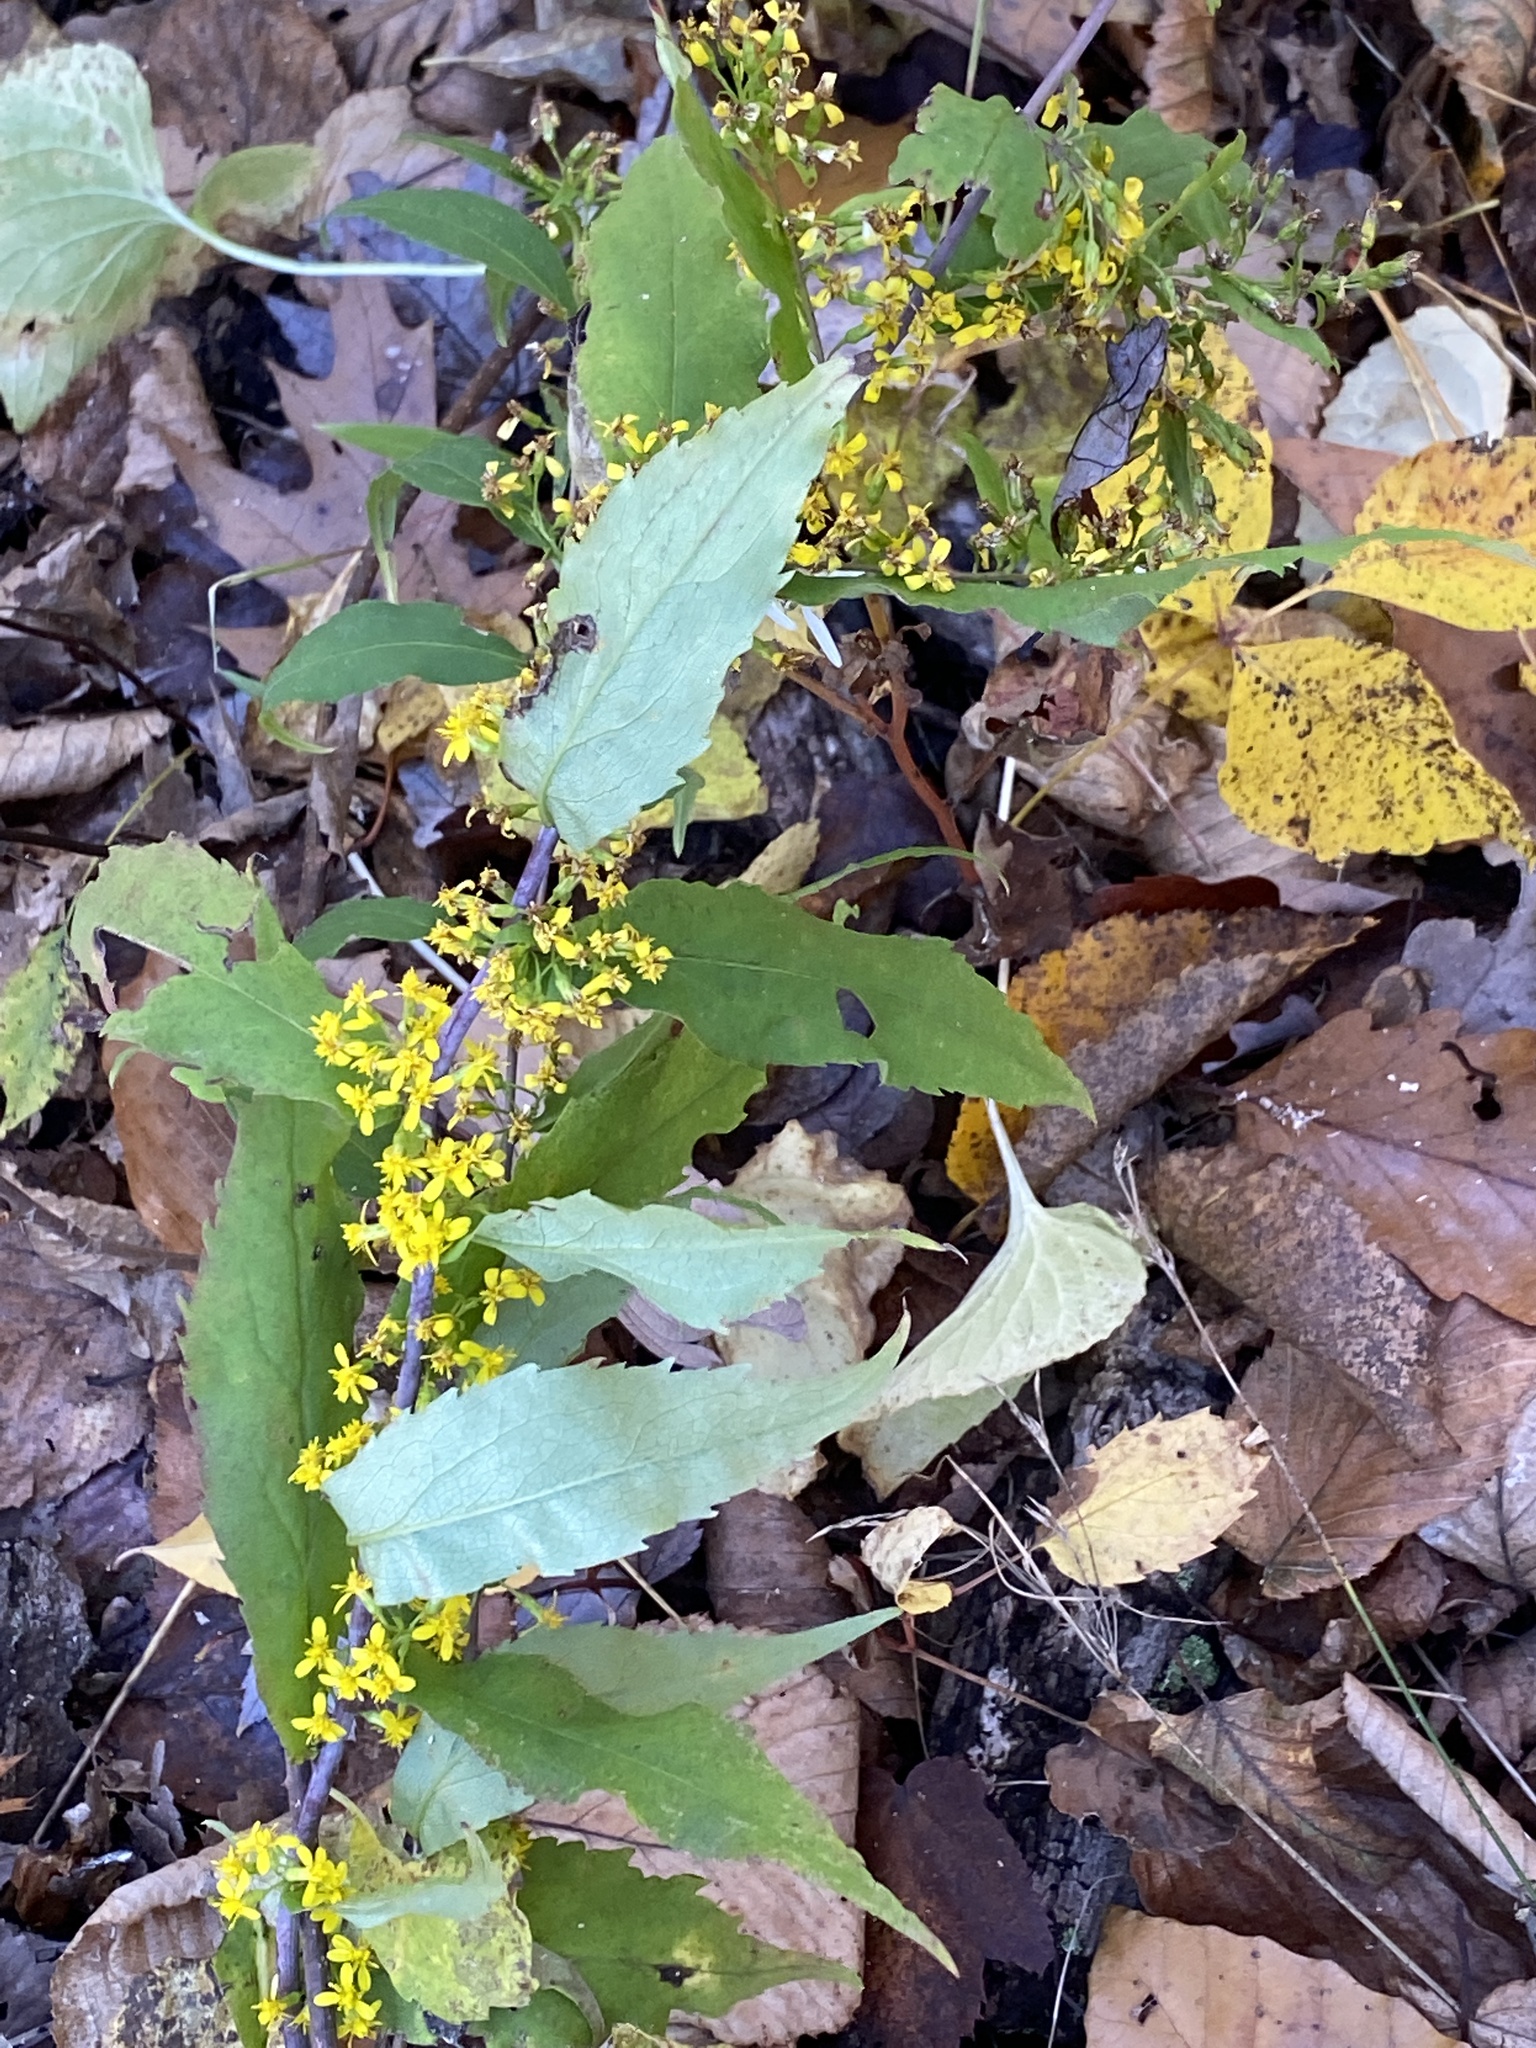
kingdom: Plantae
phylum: Tracheophyta
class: Magnoliopsida
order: Asterales
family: Asteraceae
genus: Solidago
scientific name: Solidago caesia
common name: Woodland goldenrod
